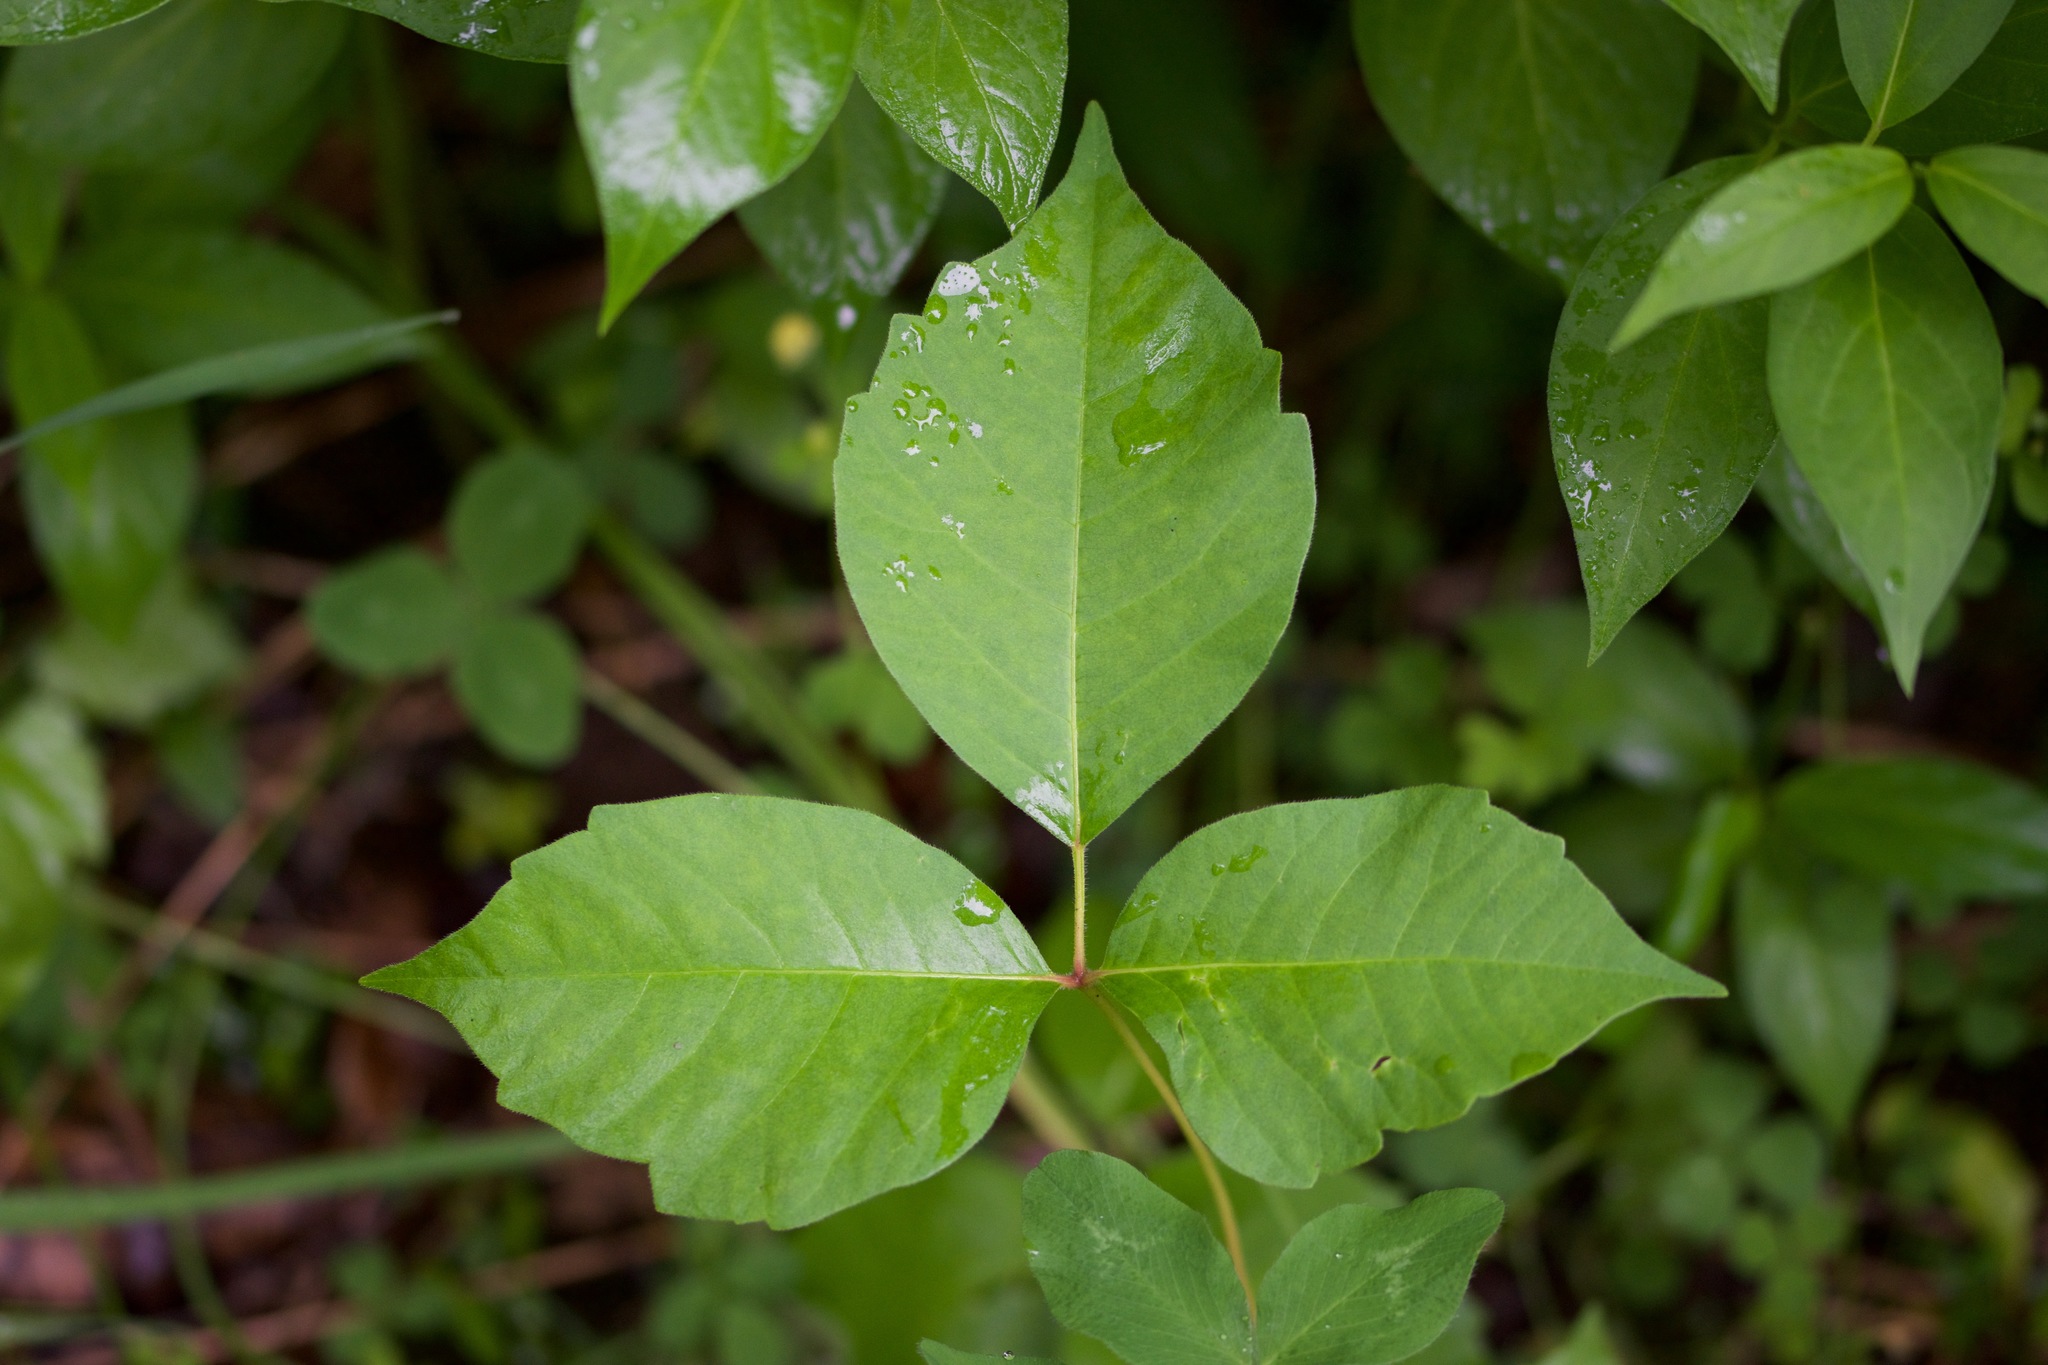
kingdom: Plantae
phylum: Tracheophyta
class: Magnoliopsida
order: Sapindales
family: Anacardiaceae
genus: Toxicodendron
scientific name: Toxicodendron radicans
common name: Poison ivy
